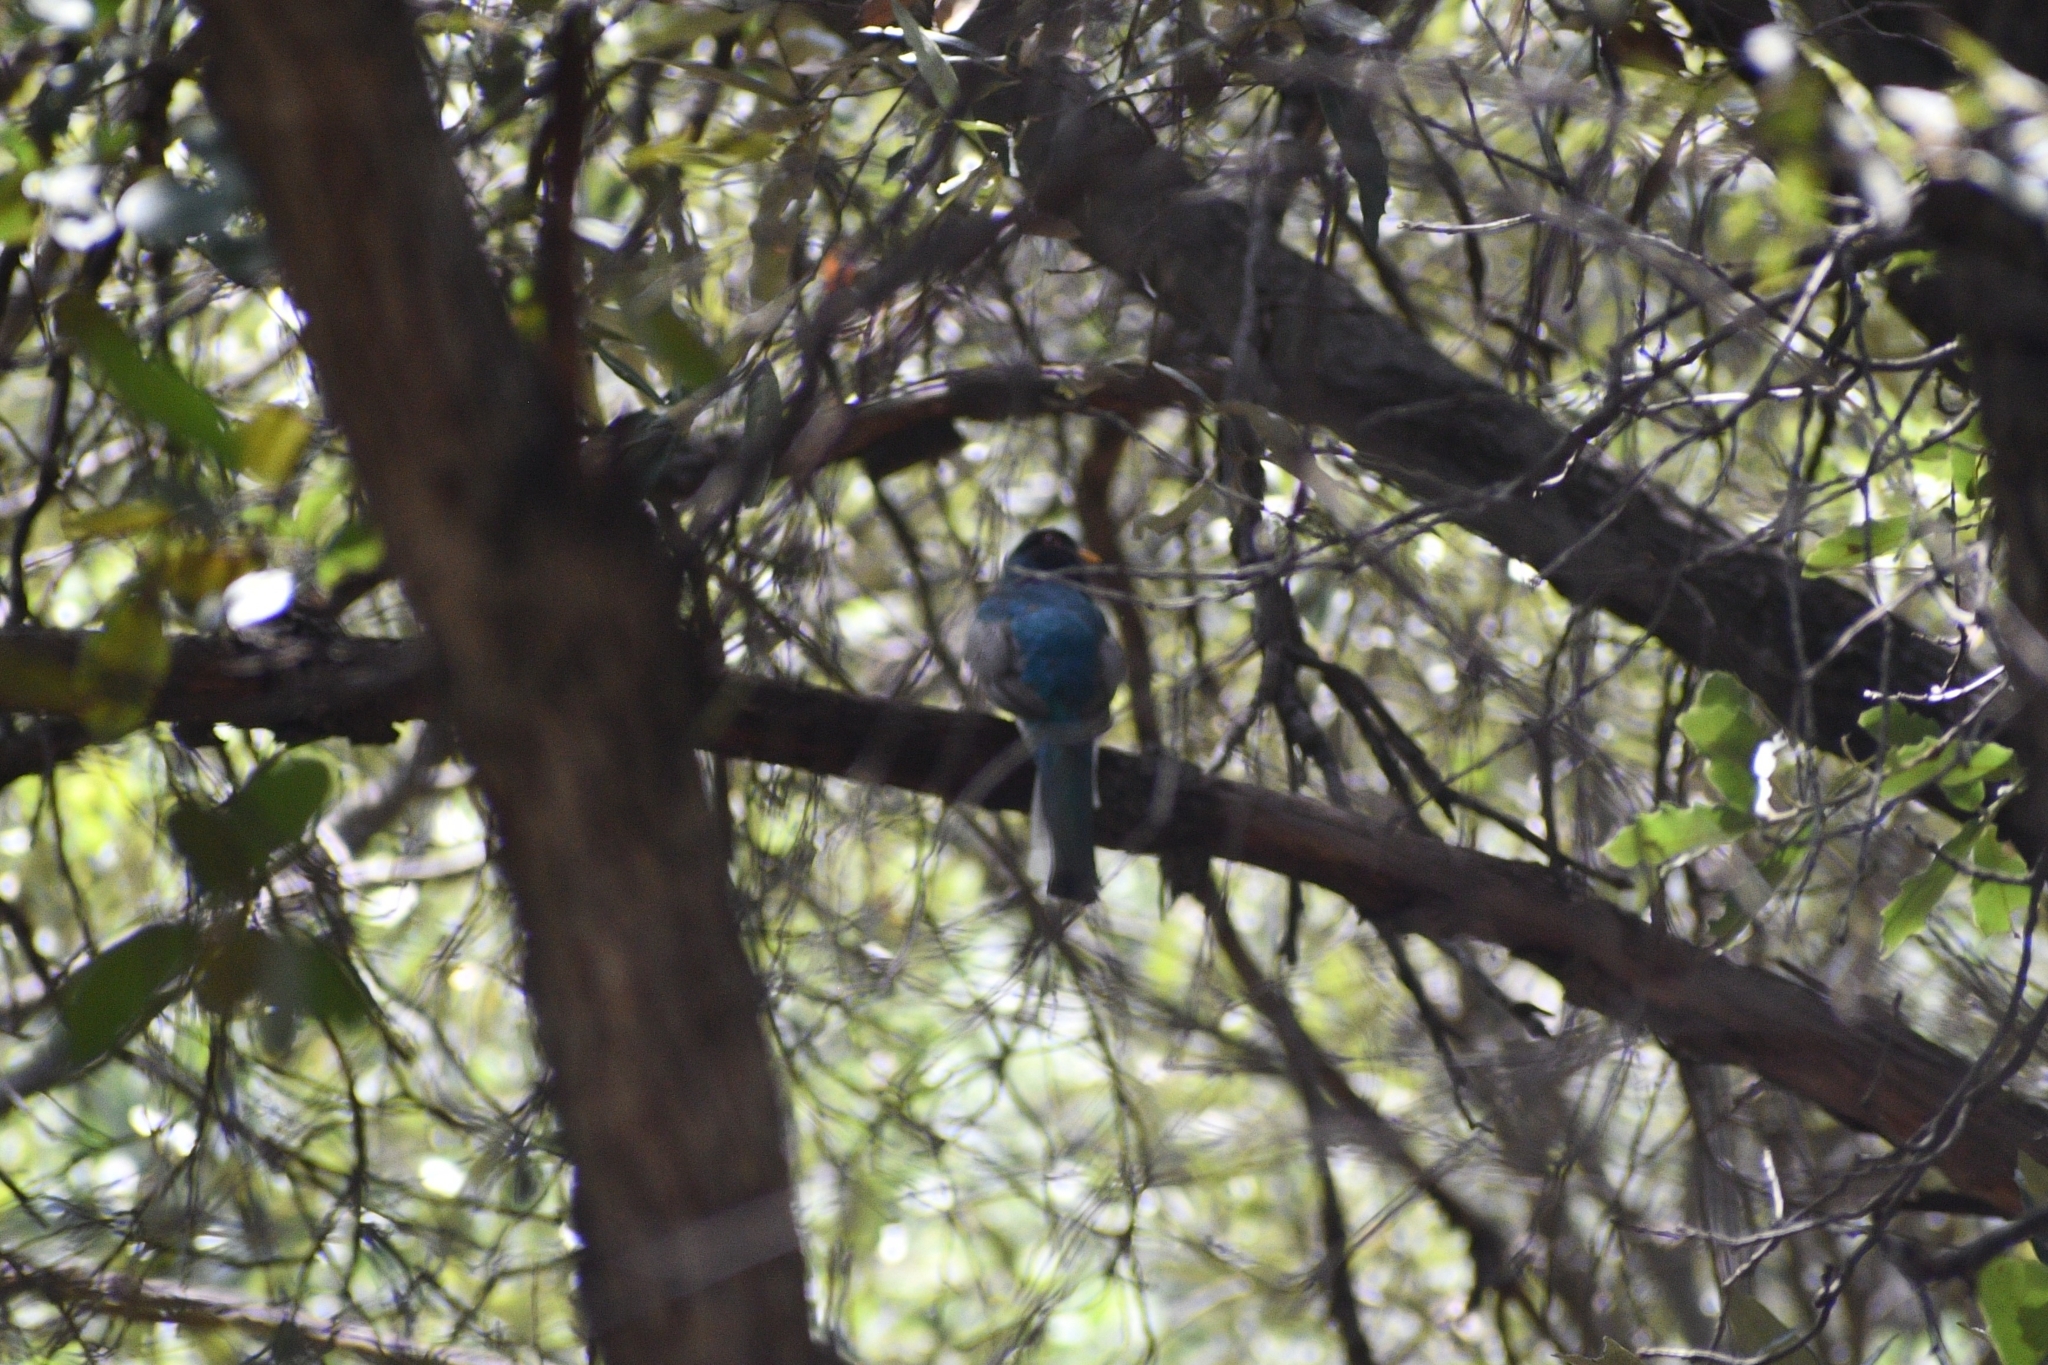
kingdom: Animalia
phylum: Chordata
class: Aves
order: Trogoniformes
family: Trogonidae
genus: Trogon
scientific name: Trogon elegans
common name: Elegant trogon
